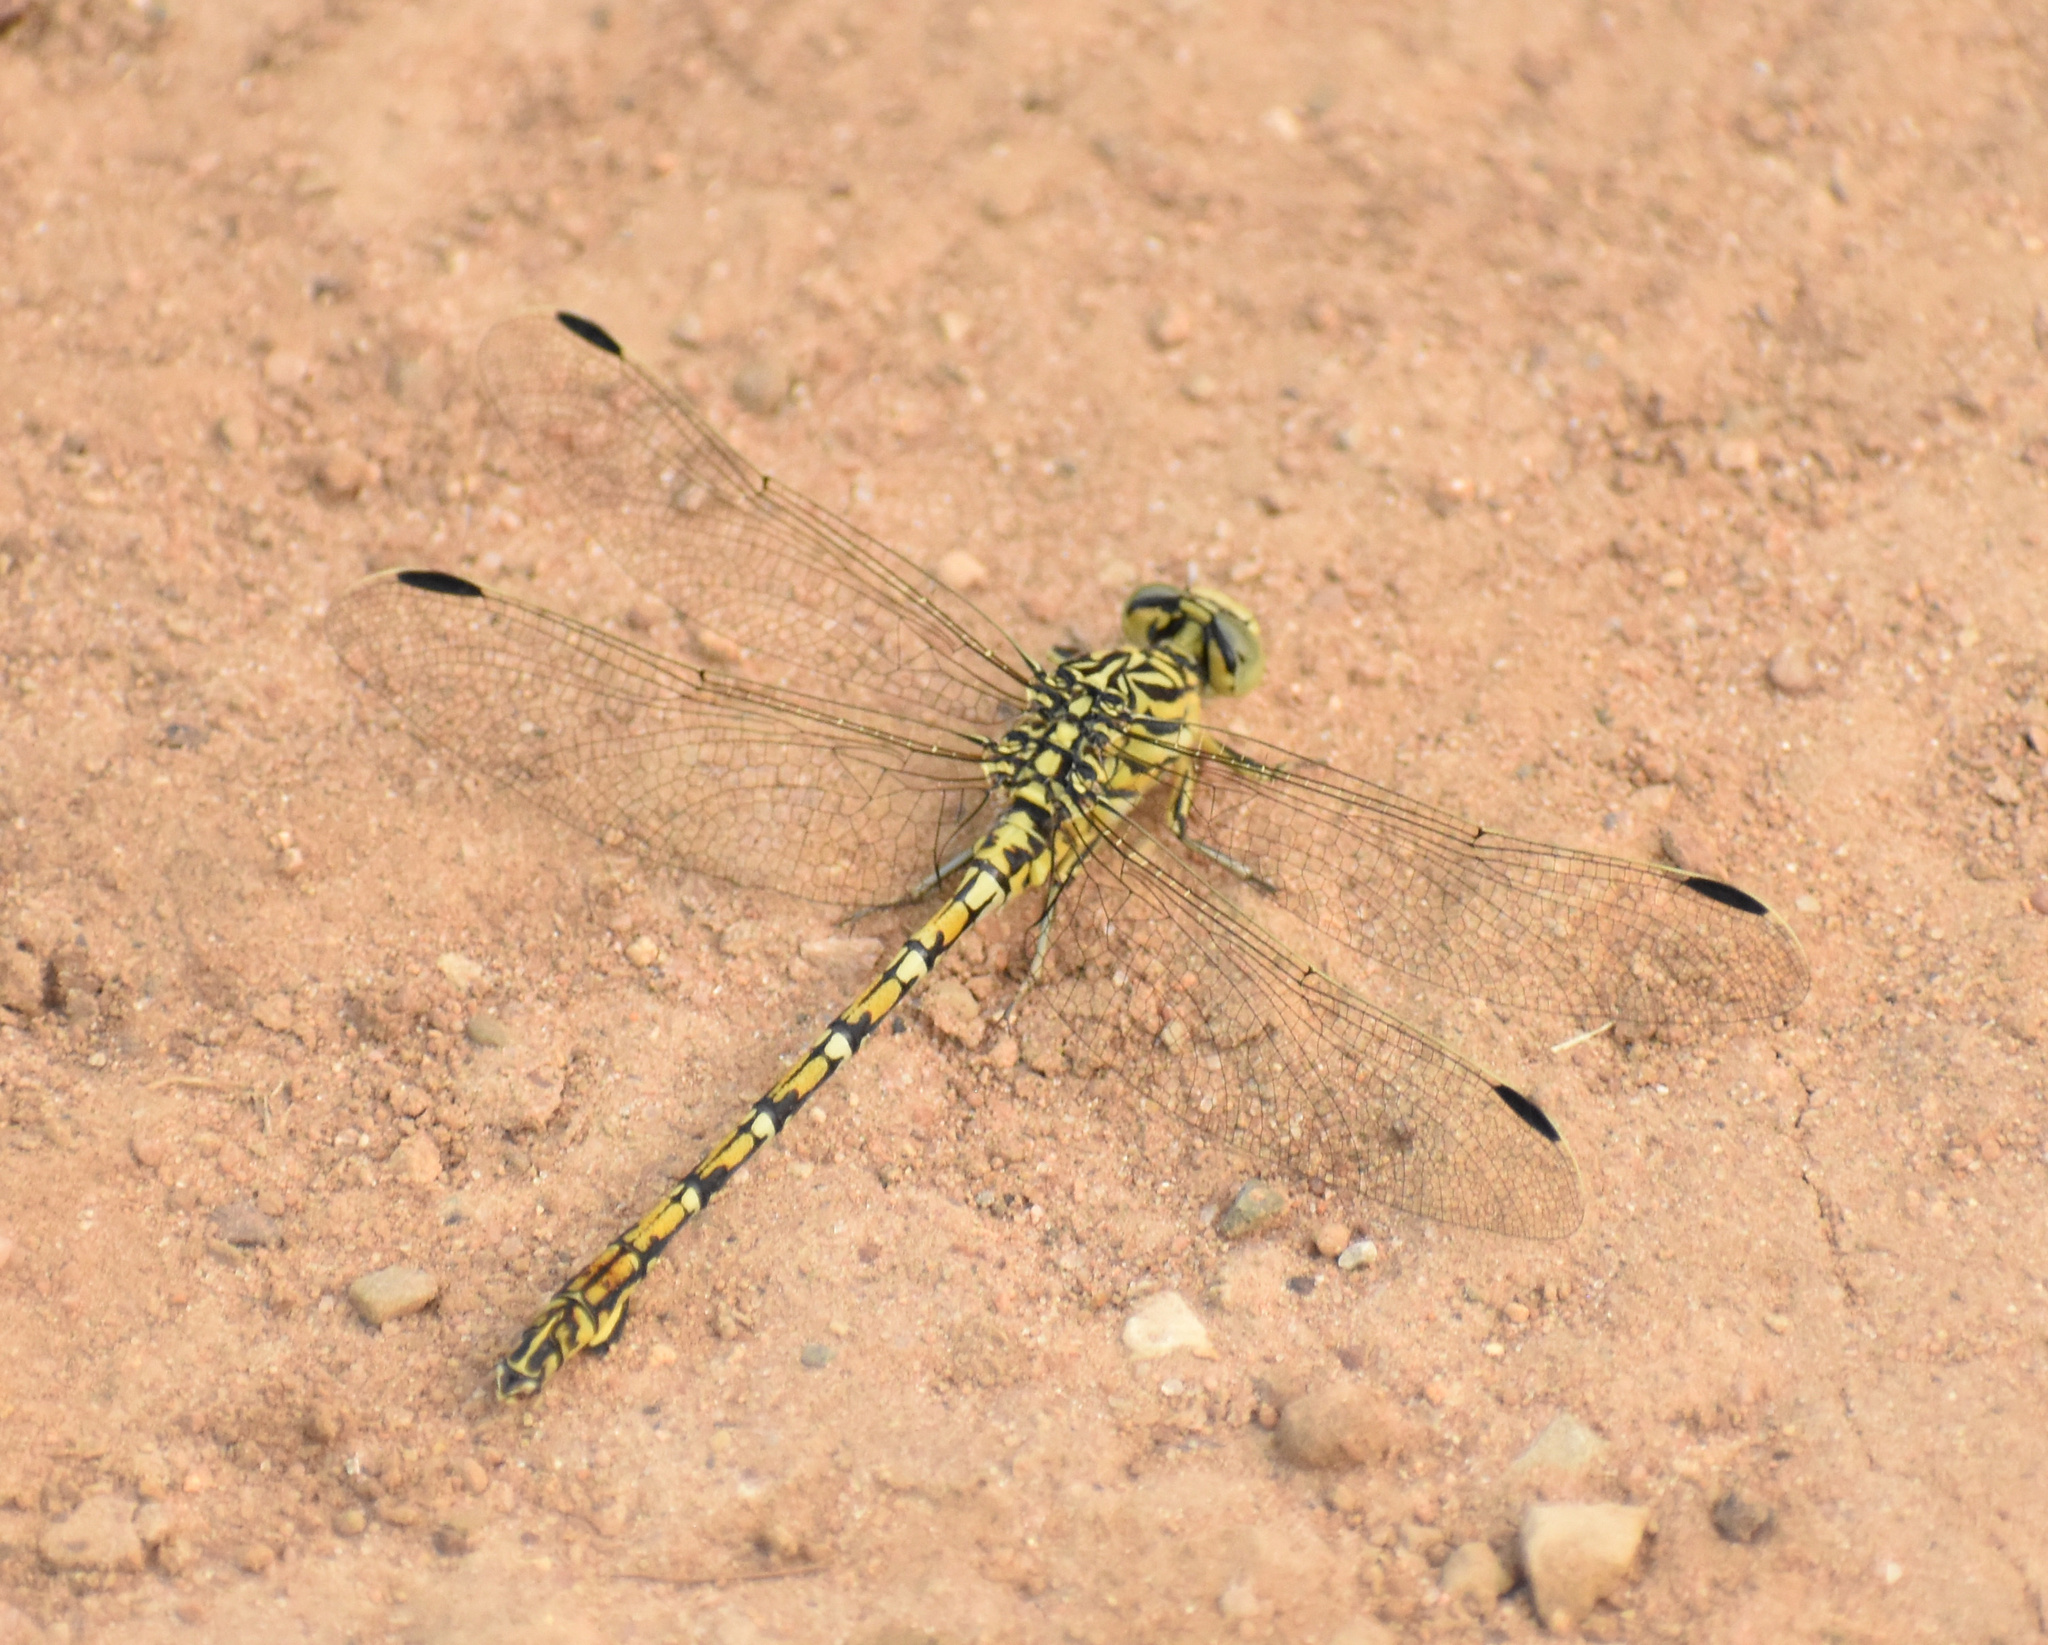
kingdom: Animalia
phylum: Arthropoda
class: Insecta
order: Odonata
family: Gomphidae
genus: Ceratogomphus
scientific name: Ceratogomphus pictus
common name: Common thorntail
